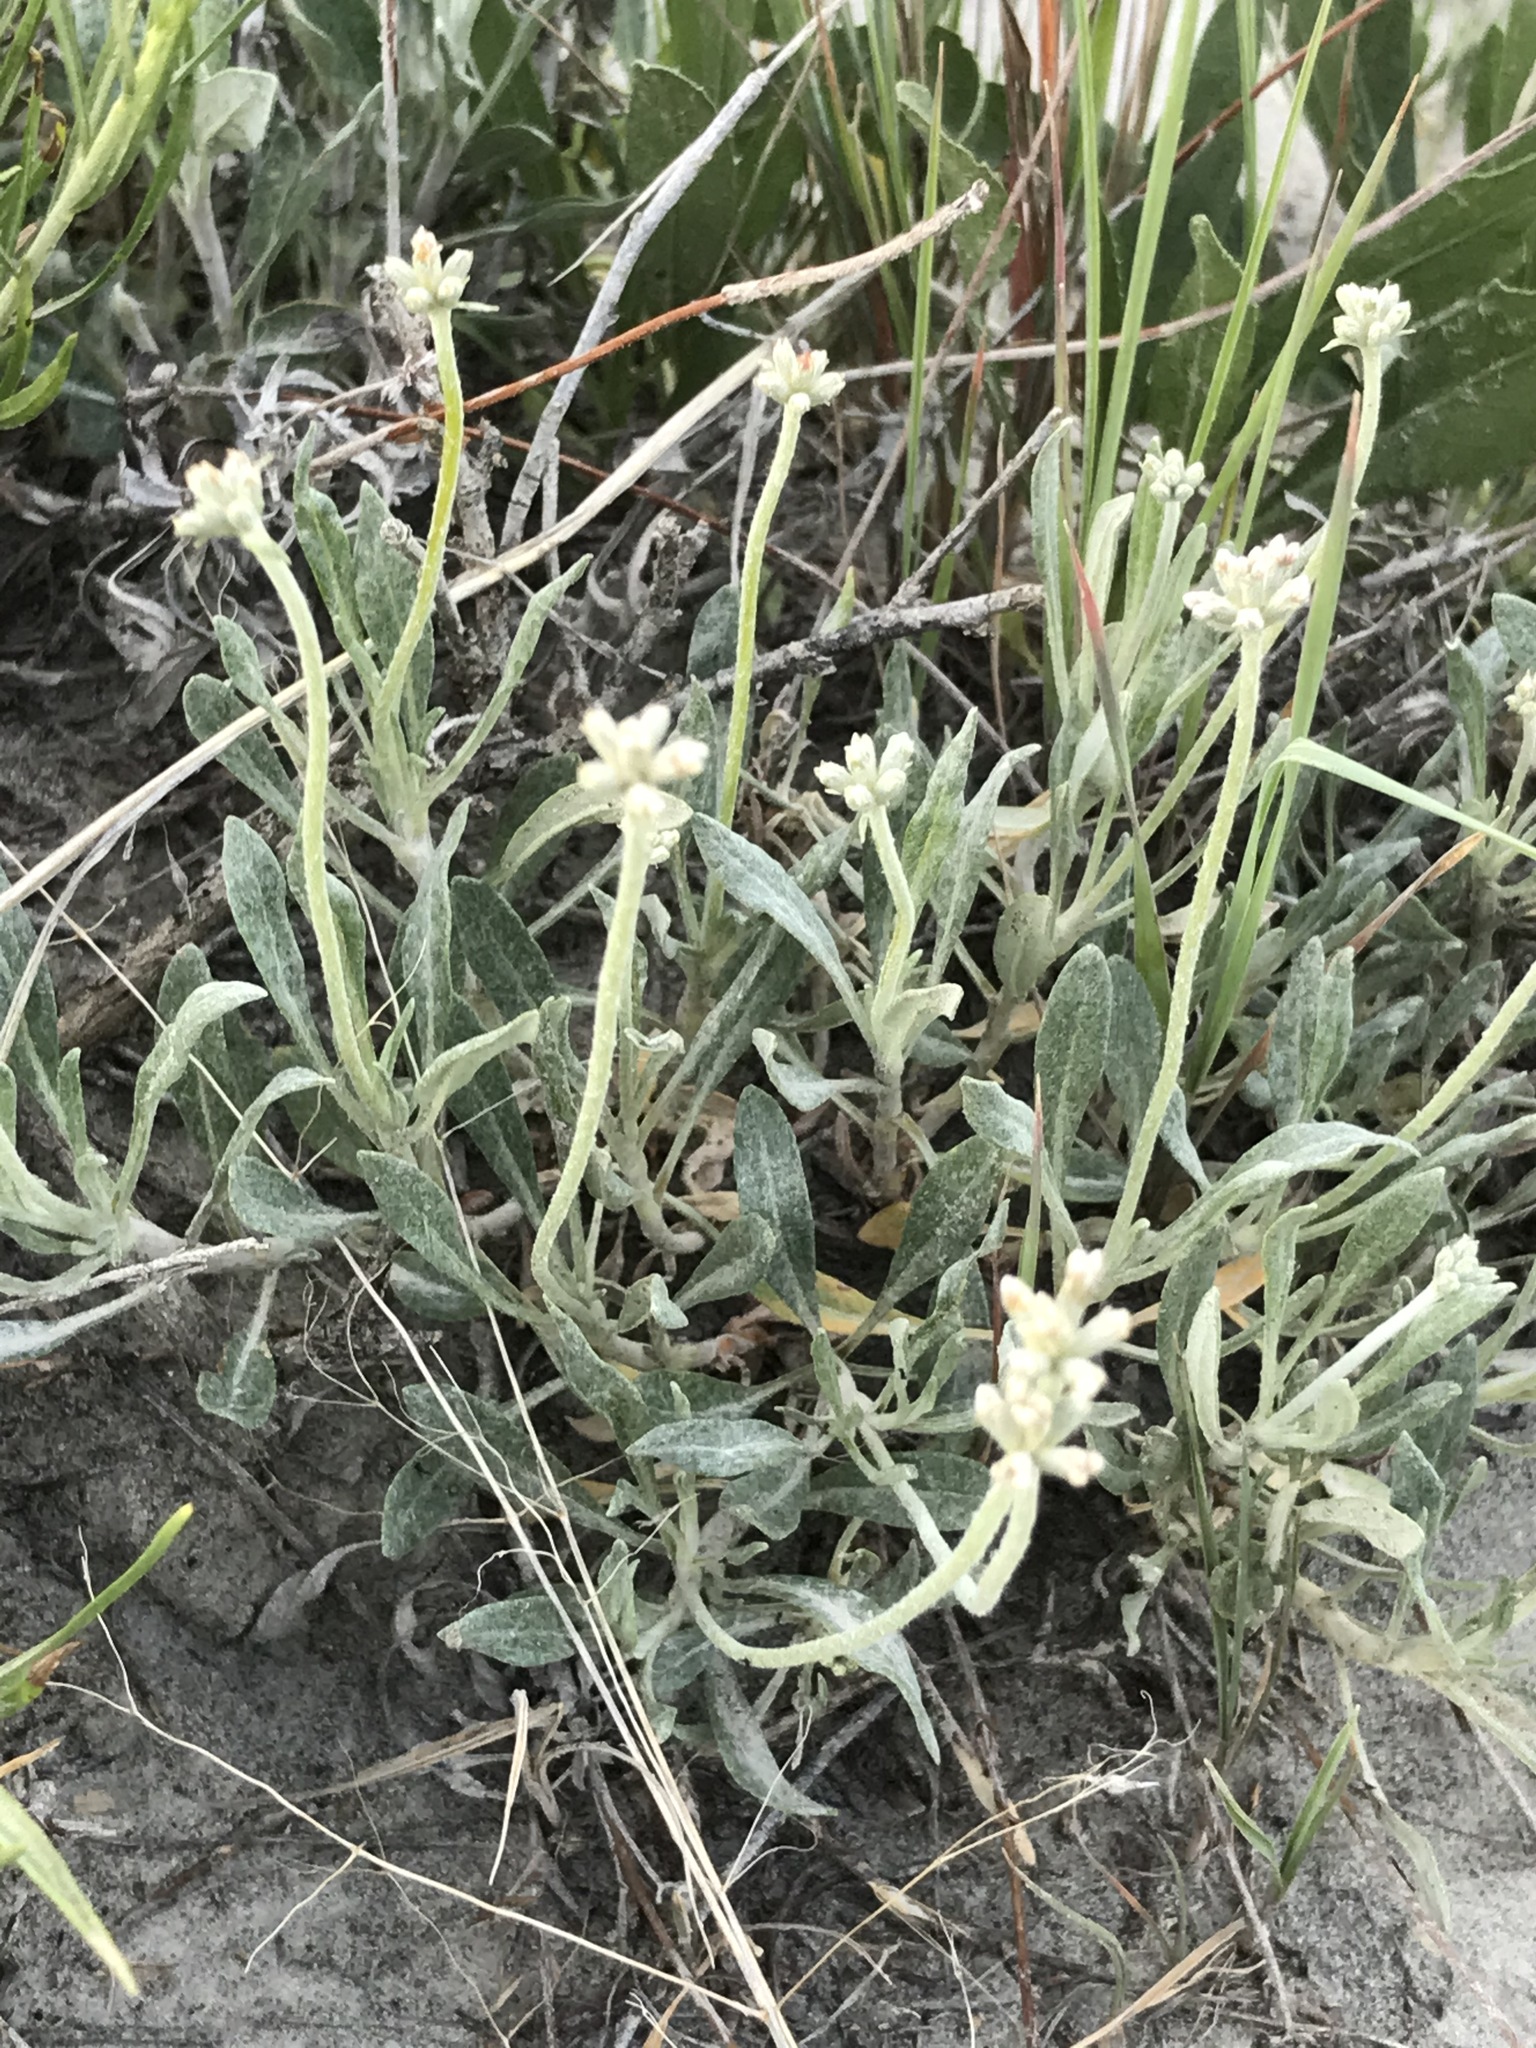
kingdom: Plantae
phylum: Tracheophyta
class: Magnoliopsida
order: Caryophyllales
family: Polygonaceae
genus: Eriogonum
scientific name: Eriogonum pauciflorum
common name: Few-flower wild buckwheat
